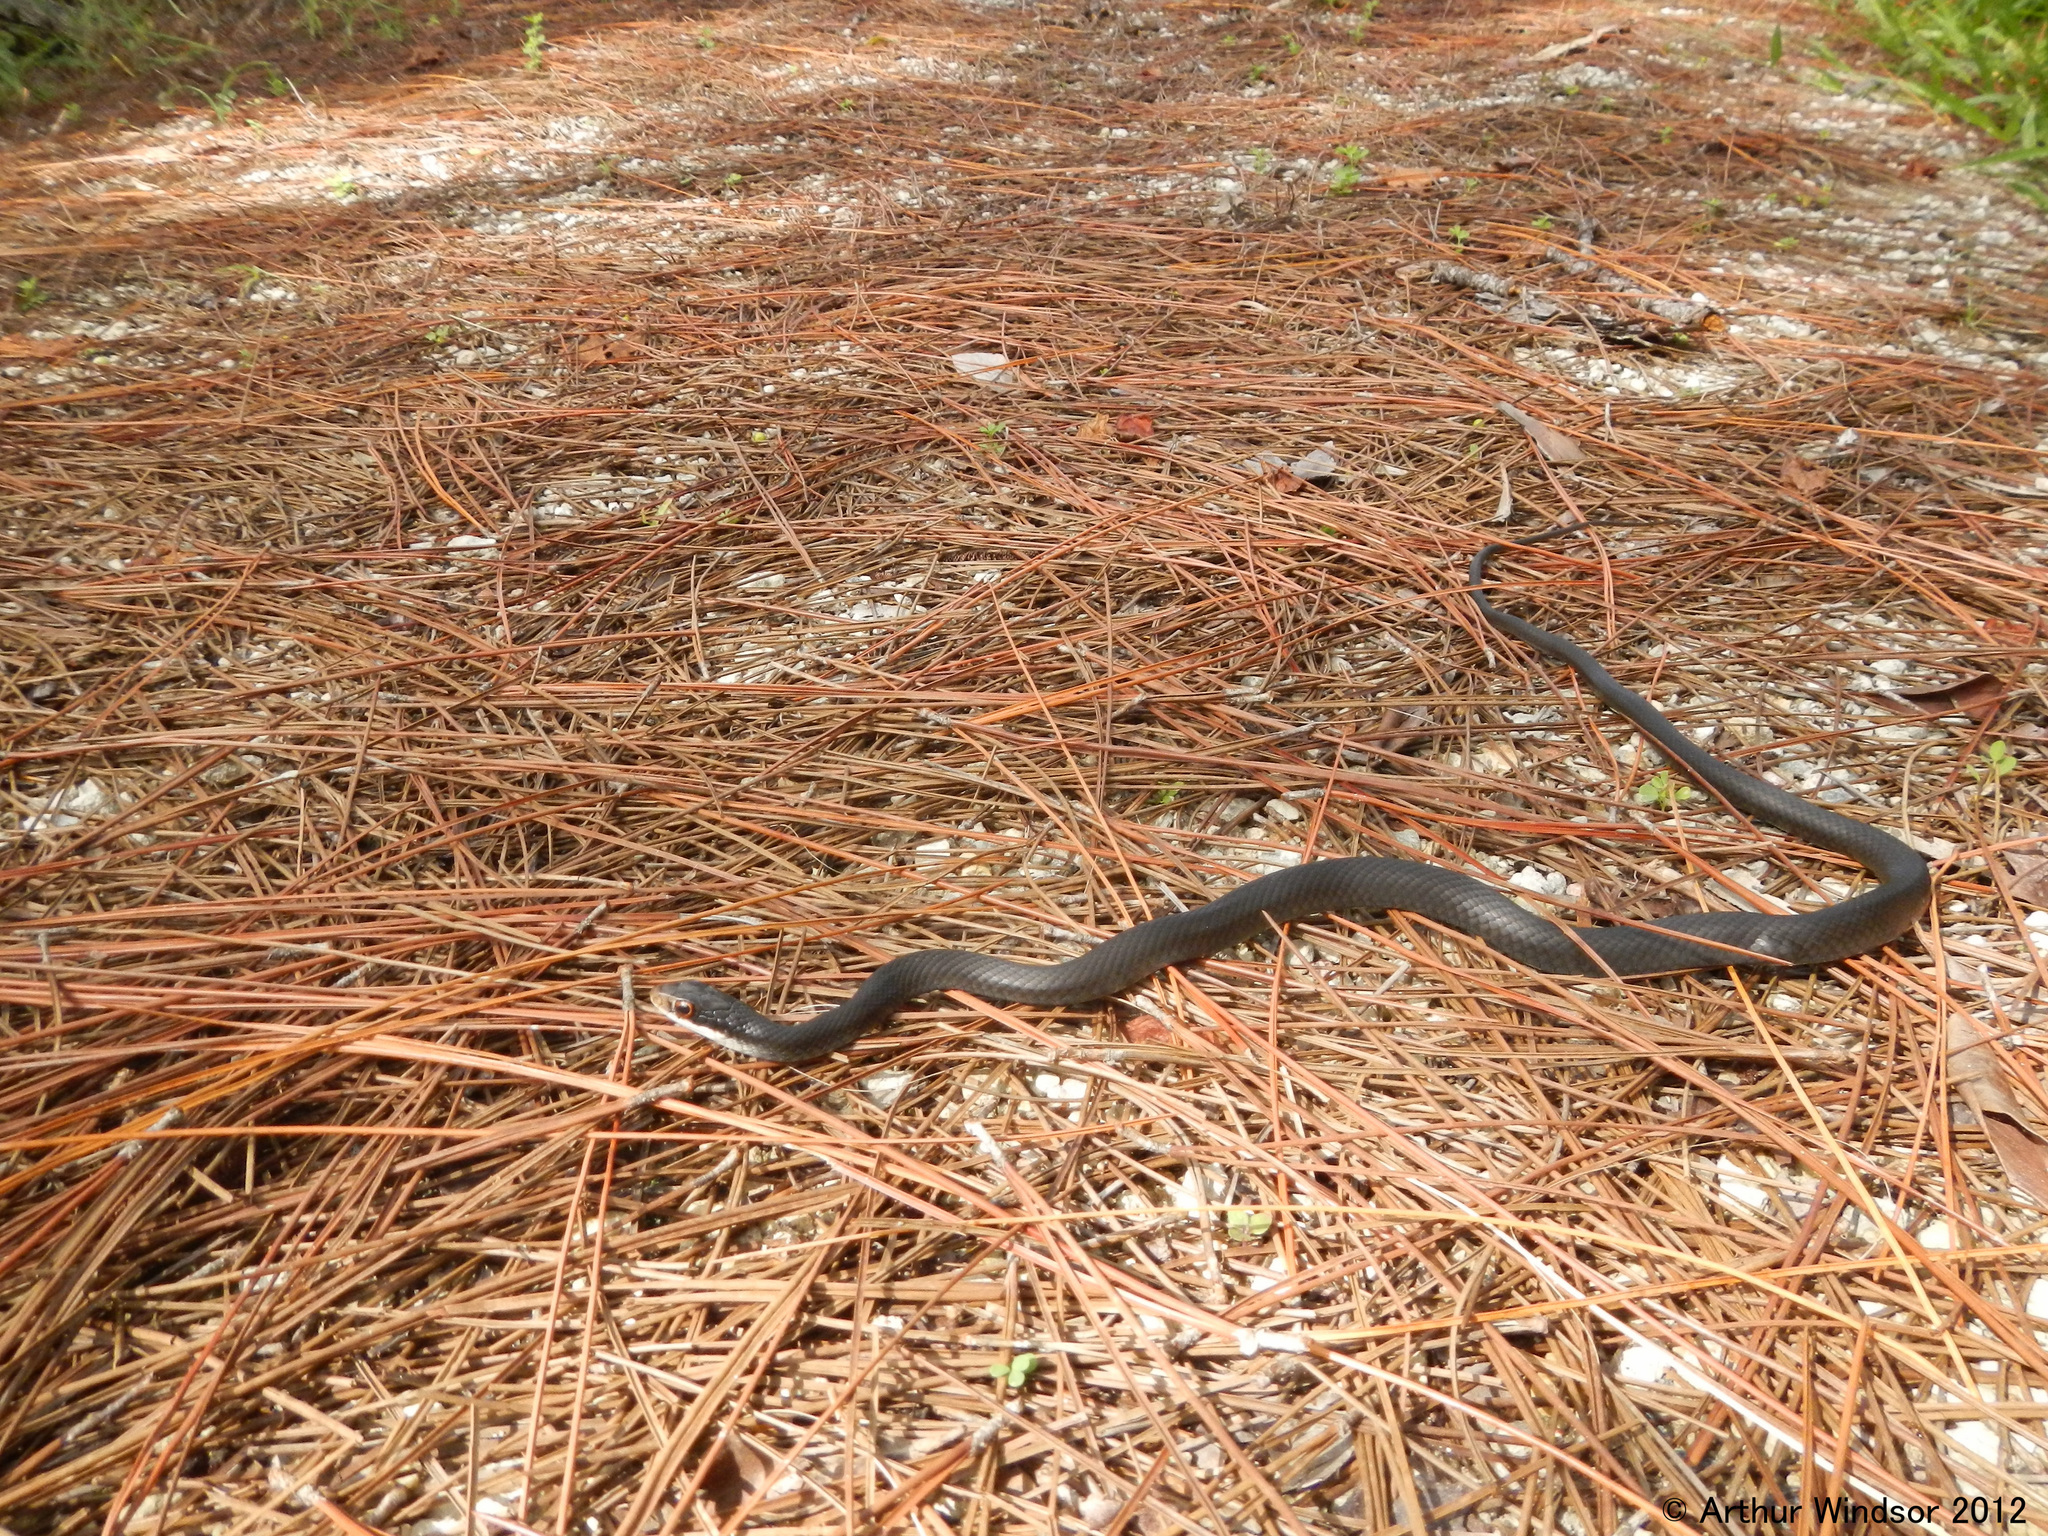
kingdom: Animalia
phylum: Chordata
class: Squamata
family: Colubridae
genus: Coluber
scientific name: Coluber constrictor
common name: Eastern racer
